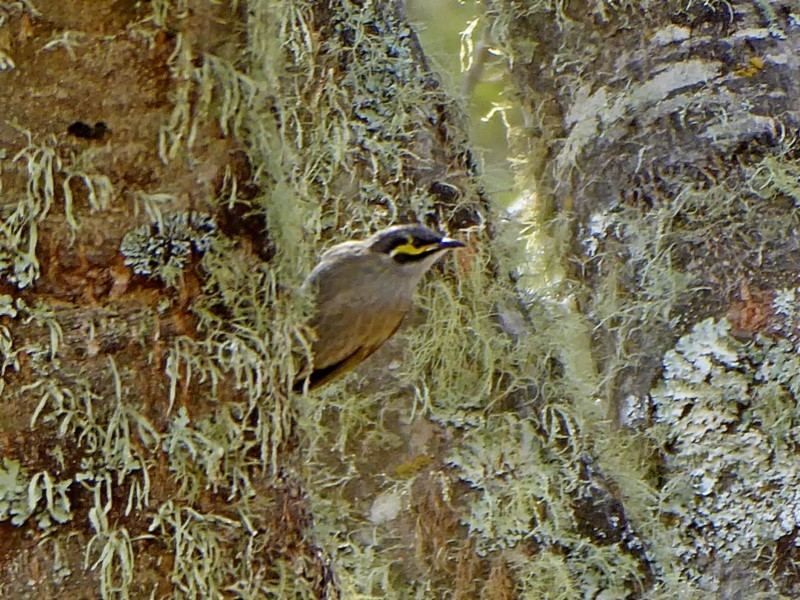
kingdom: Animalia
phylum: Chordata
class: Aves
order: Passeriformes
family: Meliphagidae
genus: Caligavis
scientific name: Caligavis chrysops
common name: Yellow-faced honeyeater
